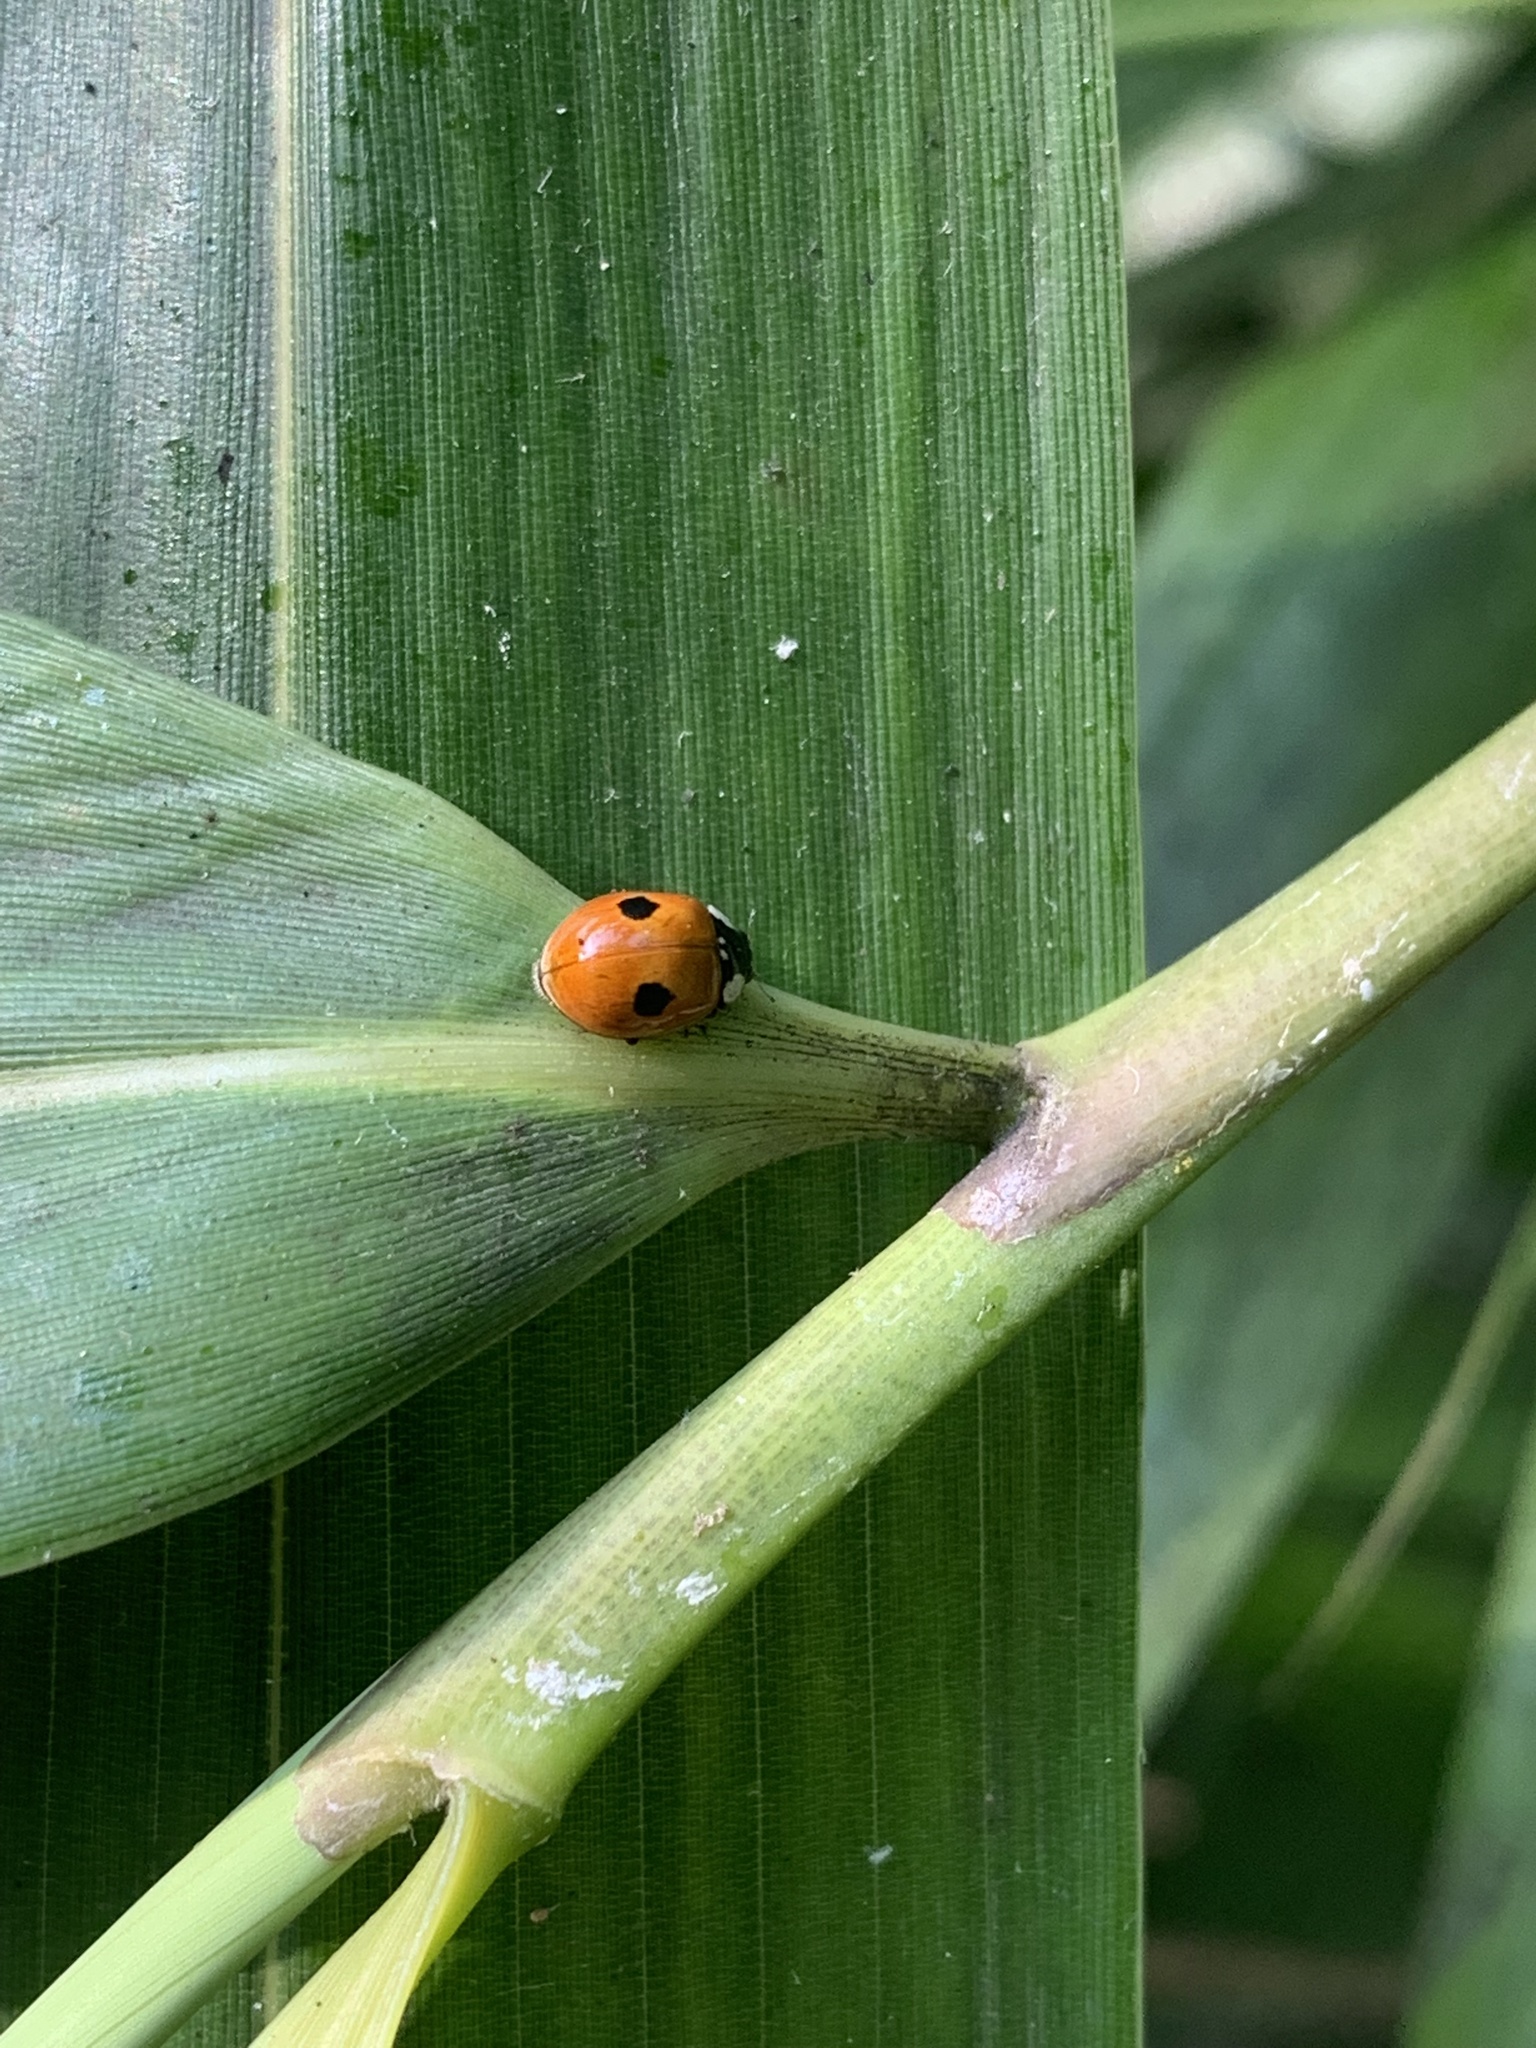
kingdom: Animalia
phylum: Arthropoda
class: Insecta
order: Coleoptera
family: Coccinellidae
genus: Adalia
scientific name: Adalia bipunctata
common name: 2-spot ladybird
